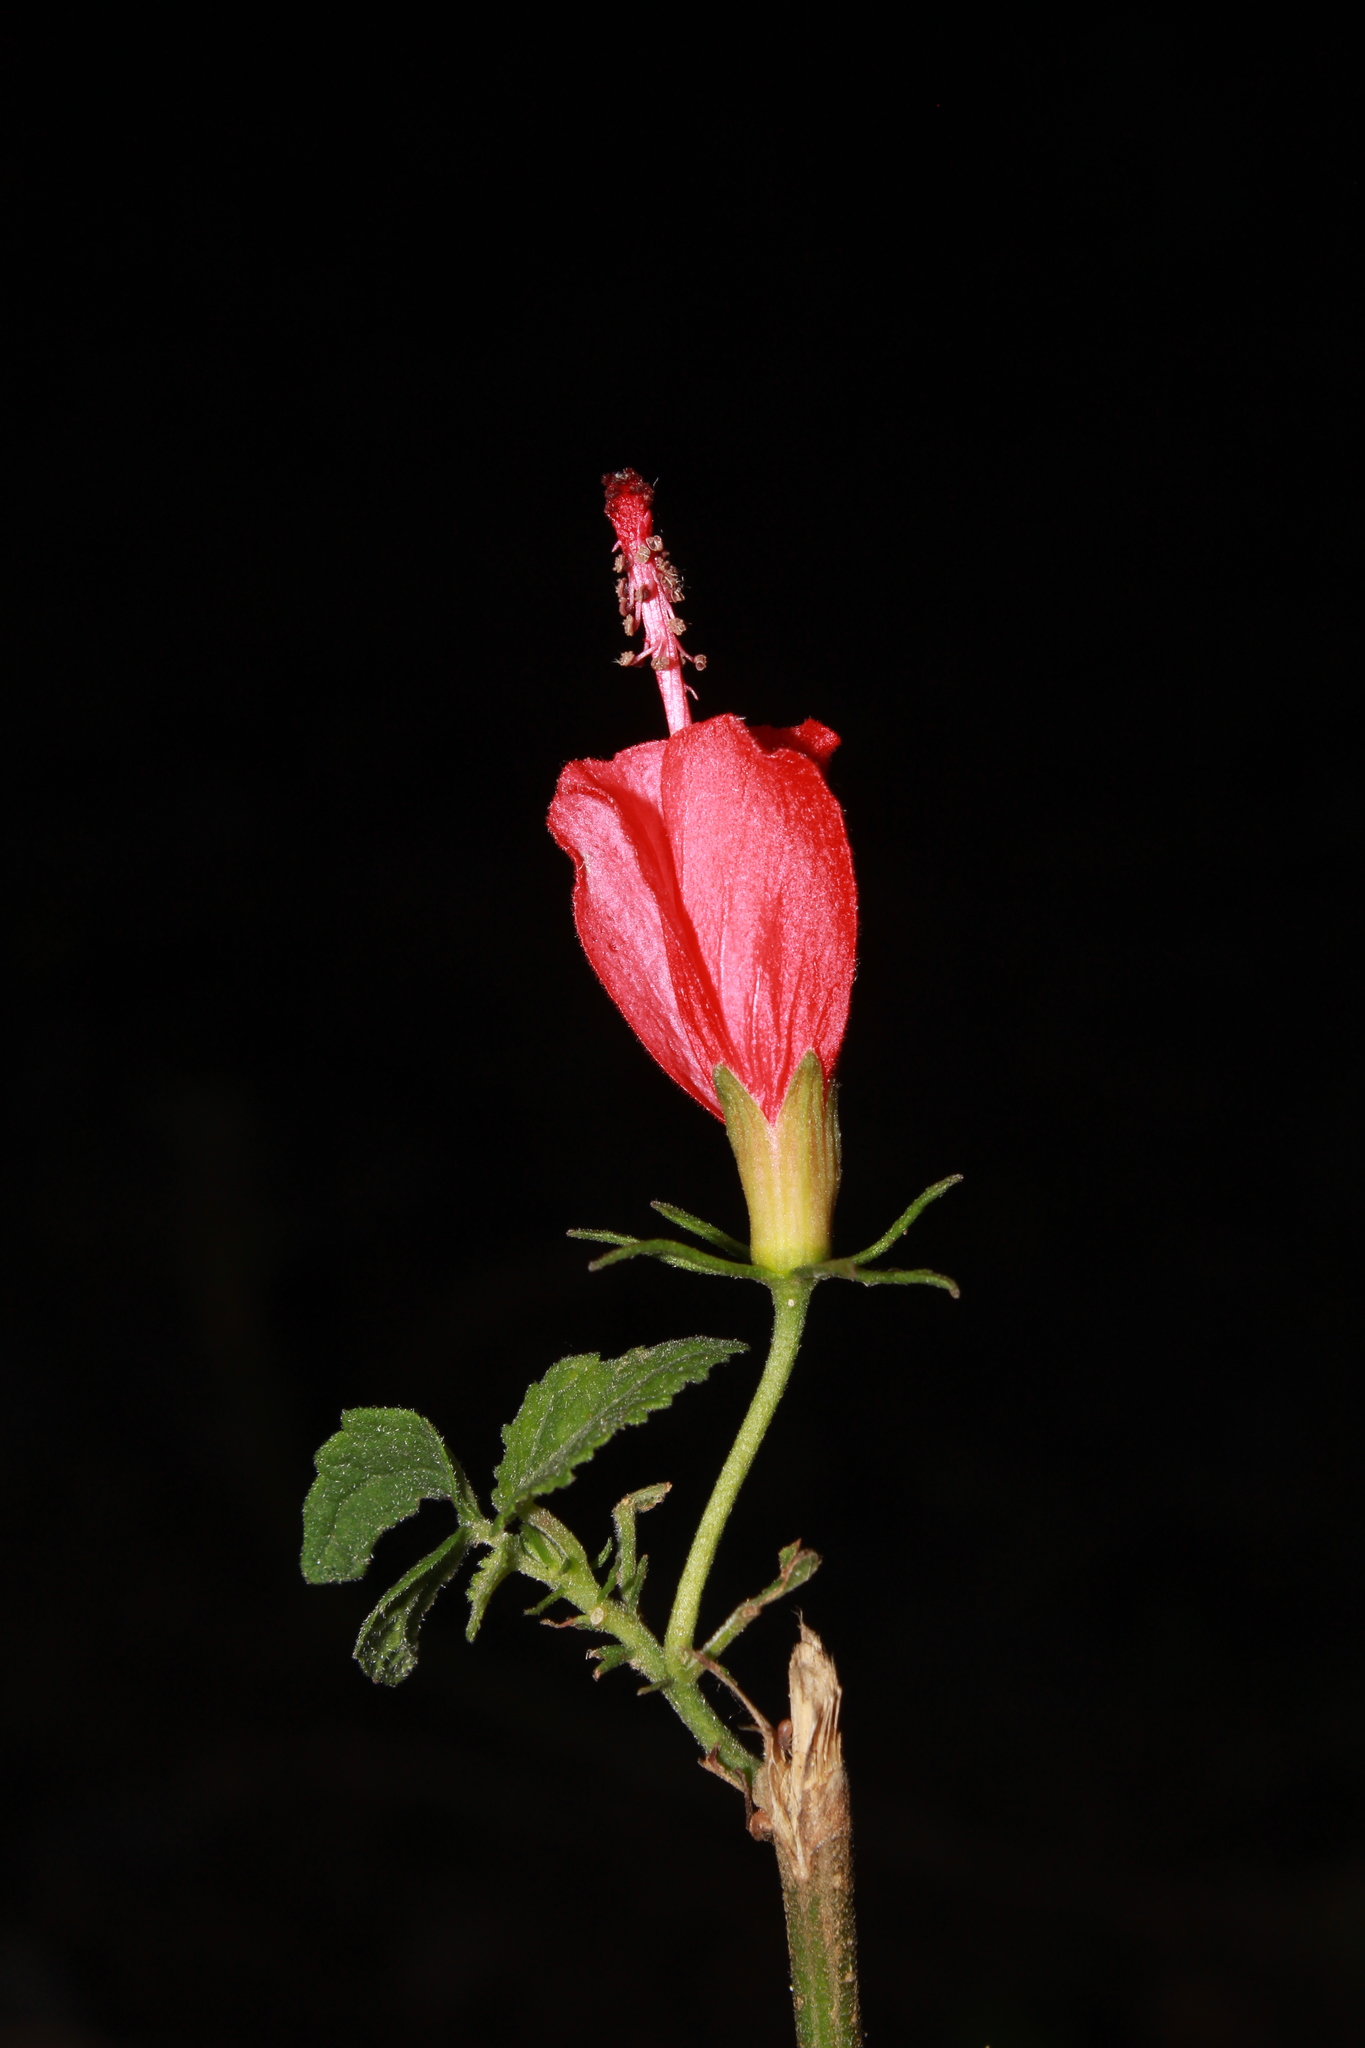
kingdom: Plantae
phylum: Tracheophyta
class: Magnoliopsida
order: Malvales
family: Malvaceae
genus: Malvaviscus
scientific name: Malvaviscus arboreus
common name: Wax mallow
